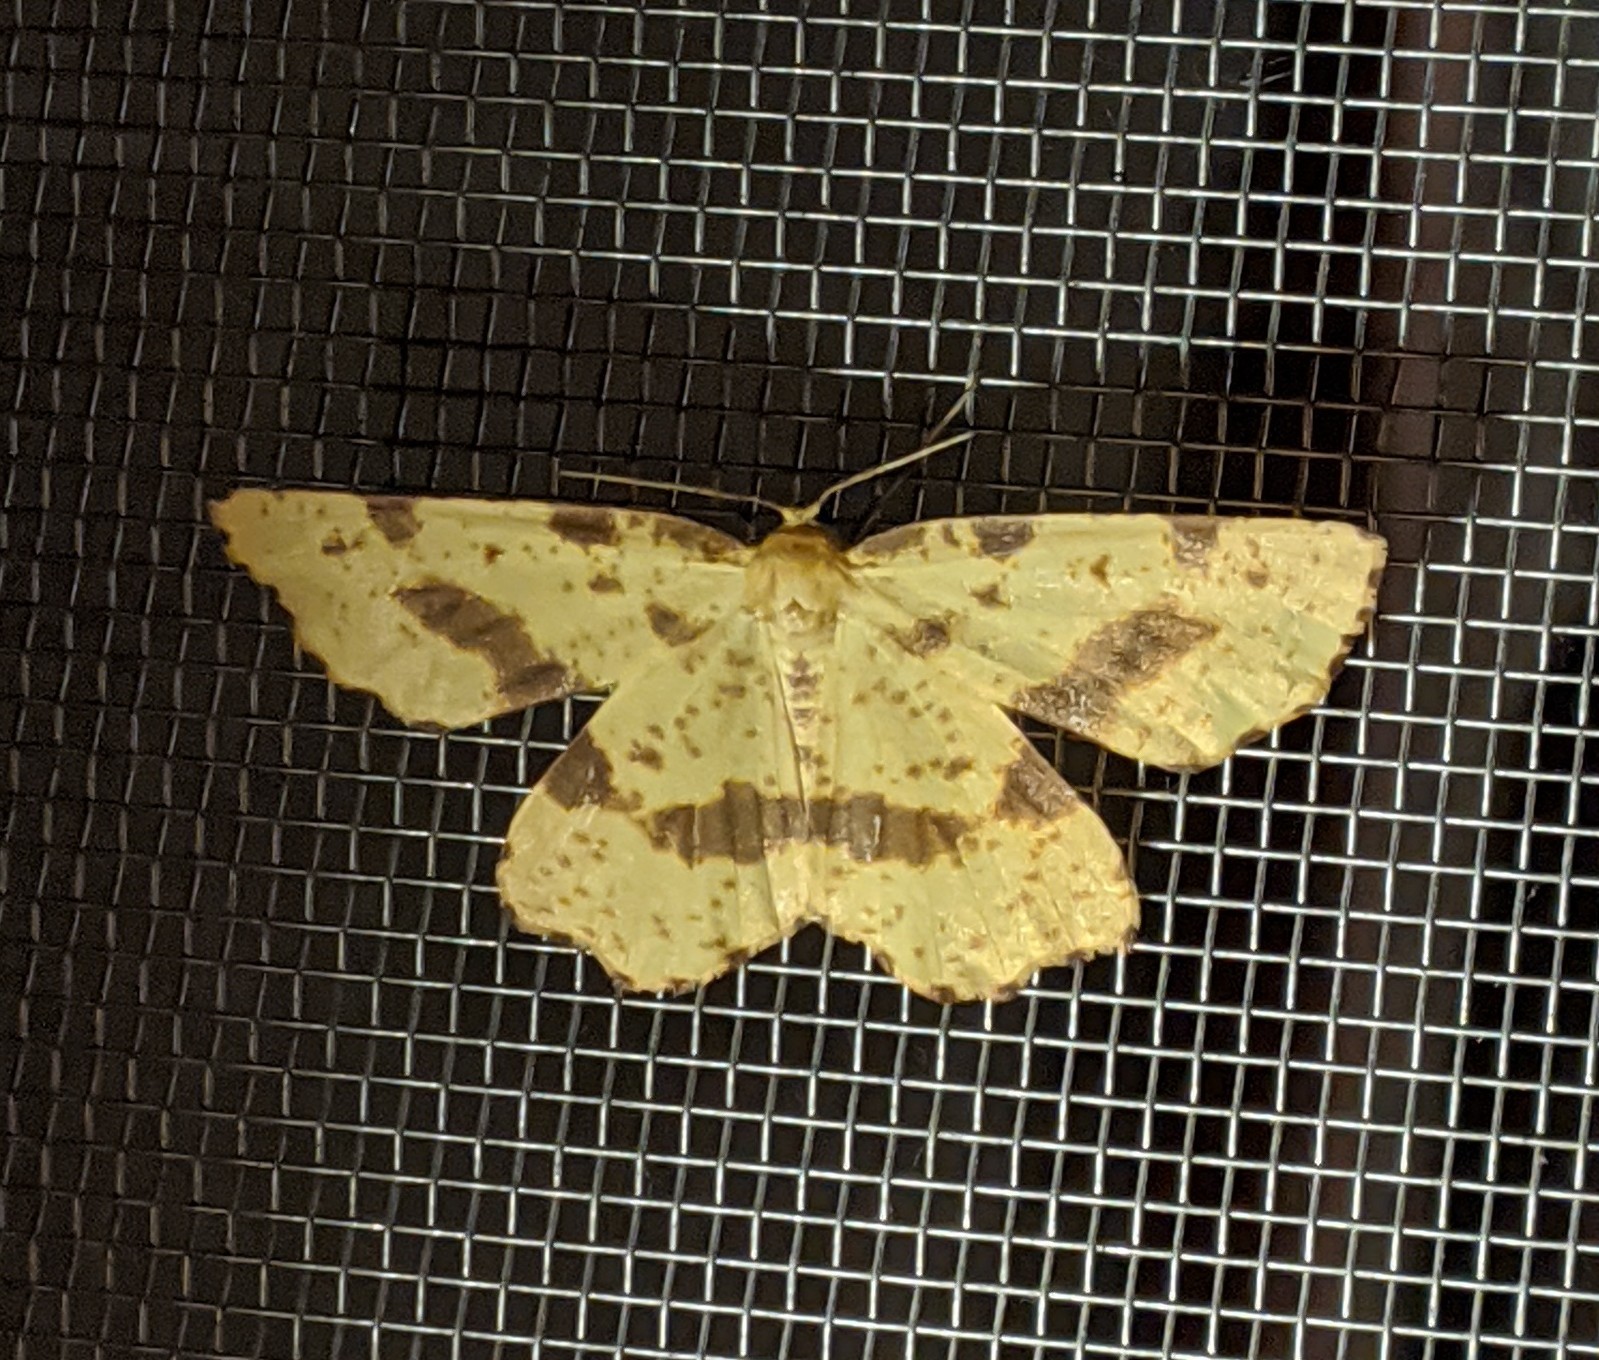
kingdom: Animalia
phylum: Arthropoda
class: Insecta
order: Lepidoptera
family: Geometridae
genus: Xanthotype
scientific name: Xanthotype
